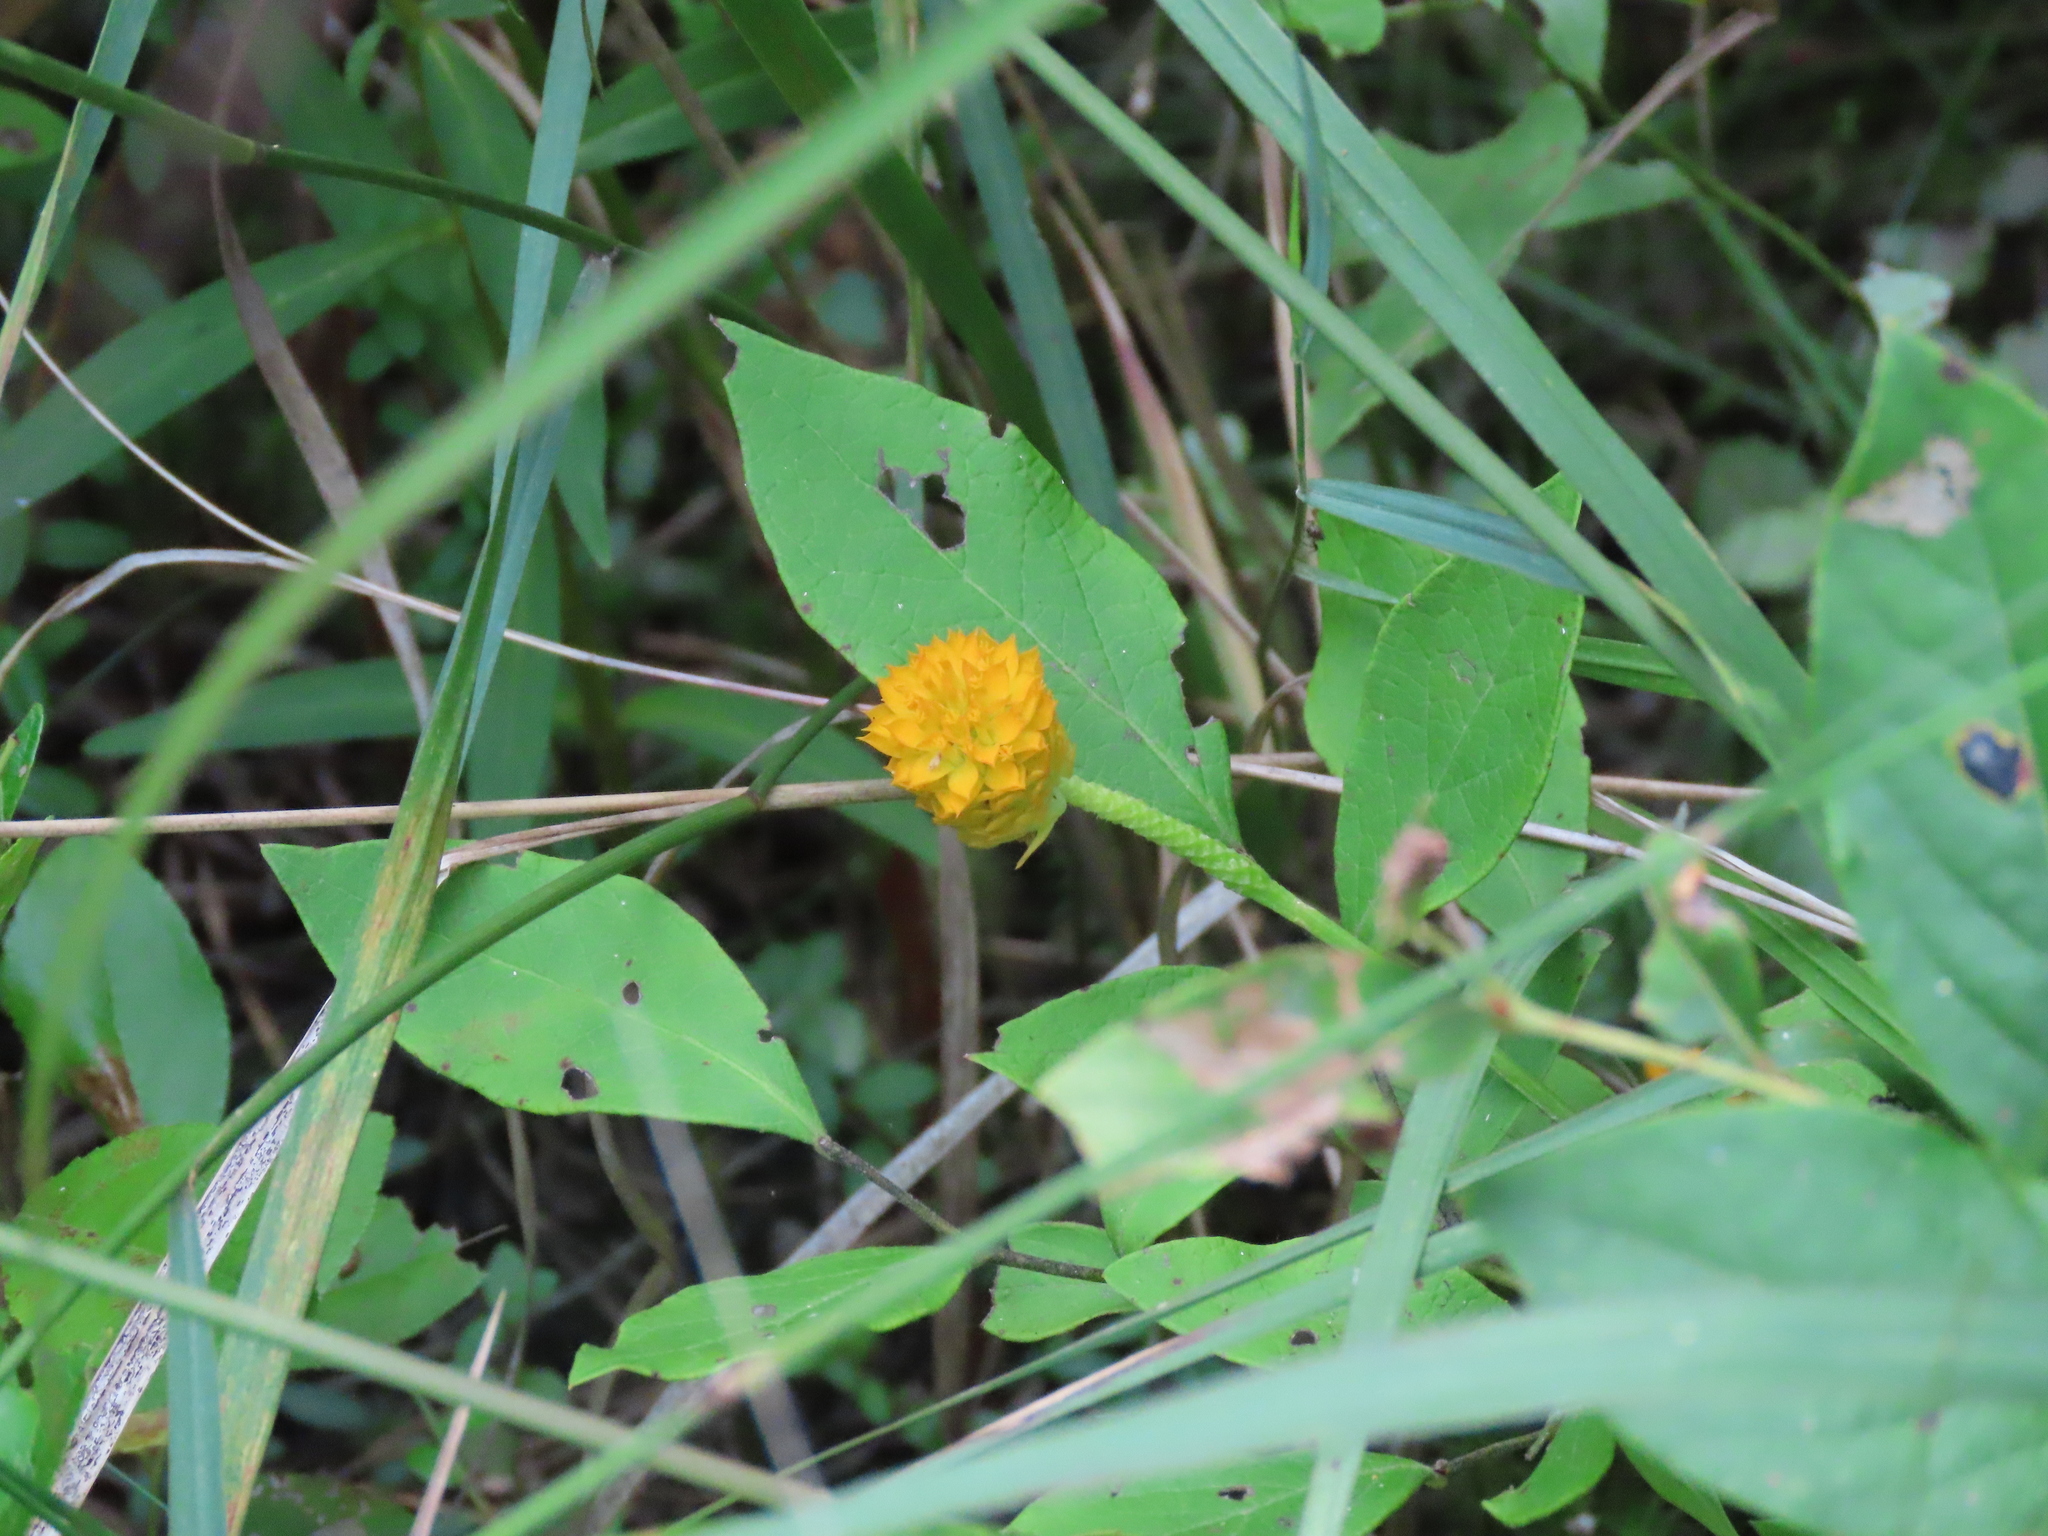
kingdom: Plantae
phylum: Tracheophyta
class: Magnoliopsida
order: Fabales
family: Polygalaceae
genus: Polygala
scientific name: Polygala lutea
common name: Orange milkwort
